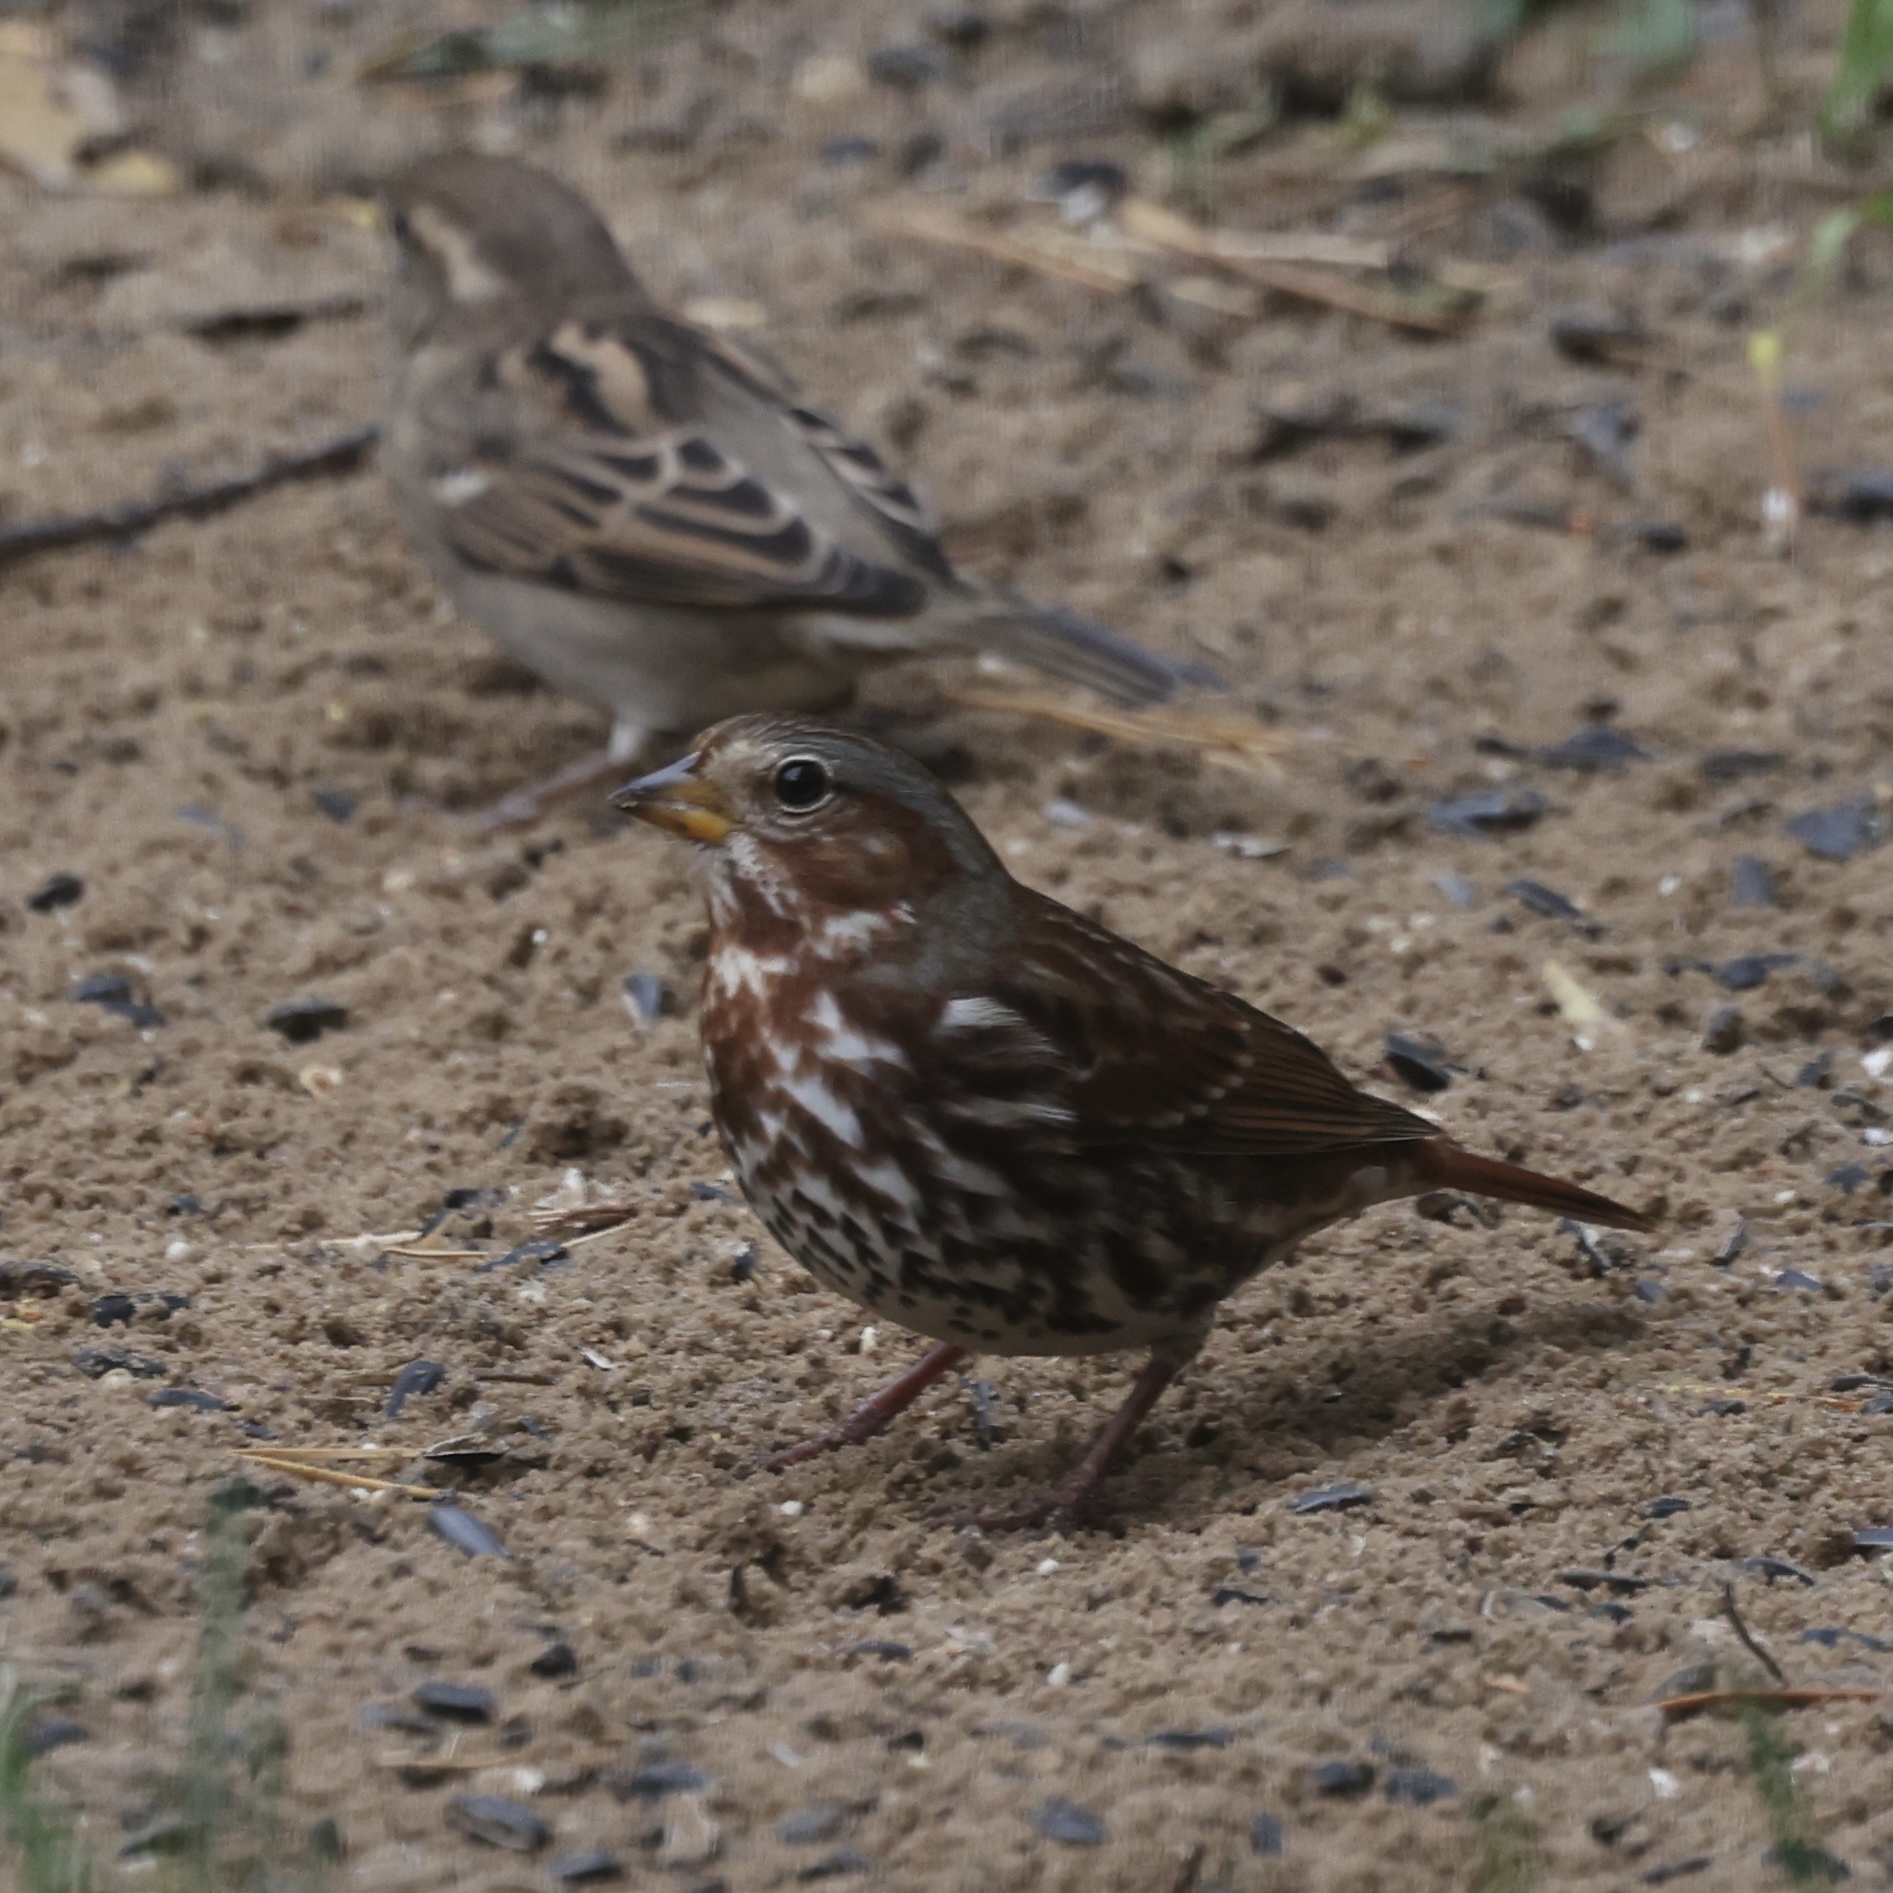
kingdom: Animalia
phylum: Chordata
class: Aves
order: Passeriformes
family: Passerellidae
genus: Passerella
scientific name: Passerella iliaca
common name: Fox sparrow
